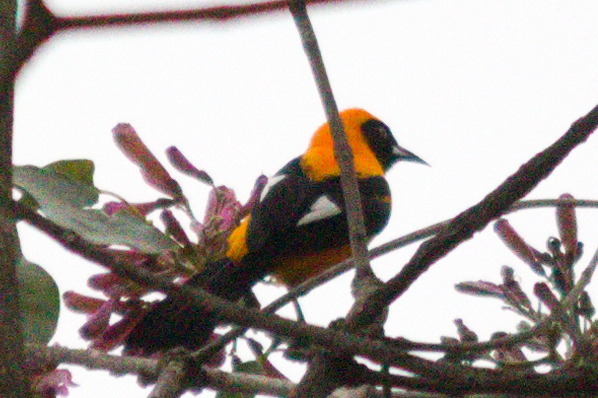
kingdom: Animalia
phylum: Chordata
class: Aves
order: Passeriformes
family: Icteridae
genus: Icterus
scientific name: Icterus icterus
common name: Venezuelan troupial
